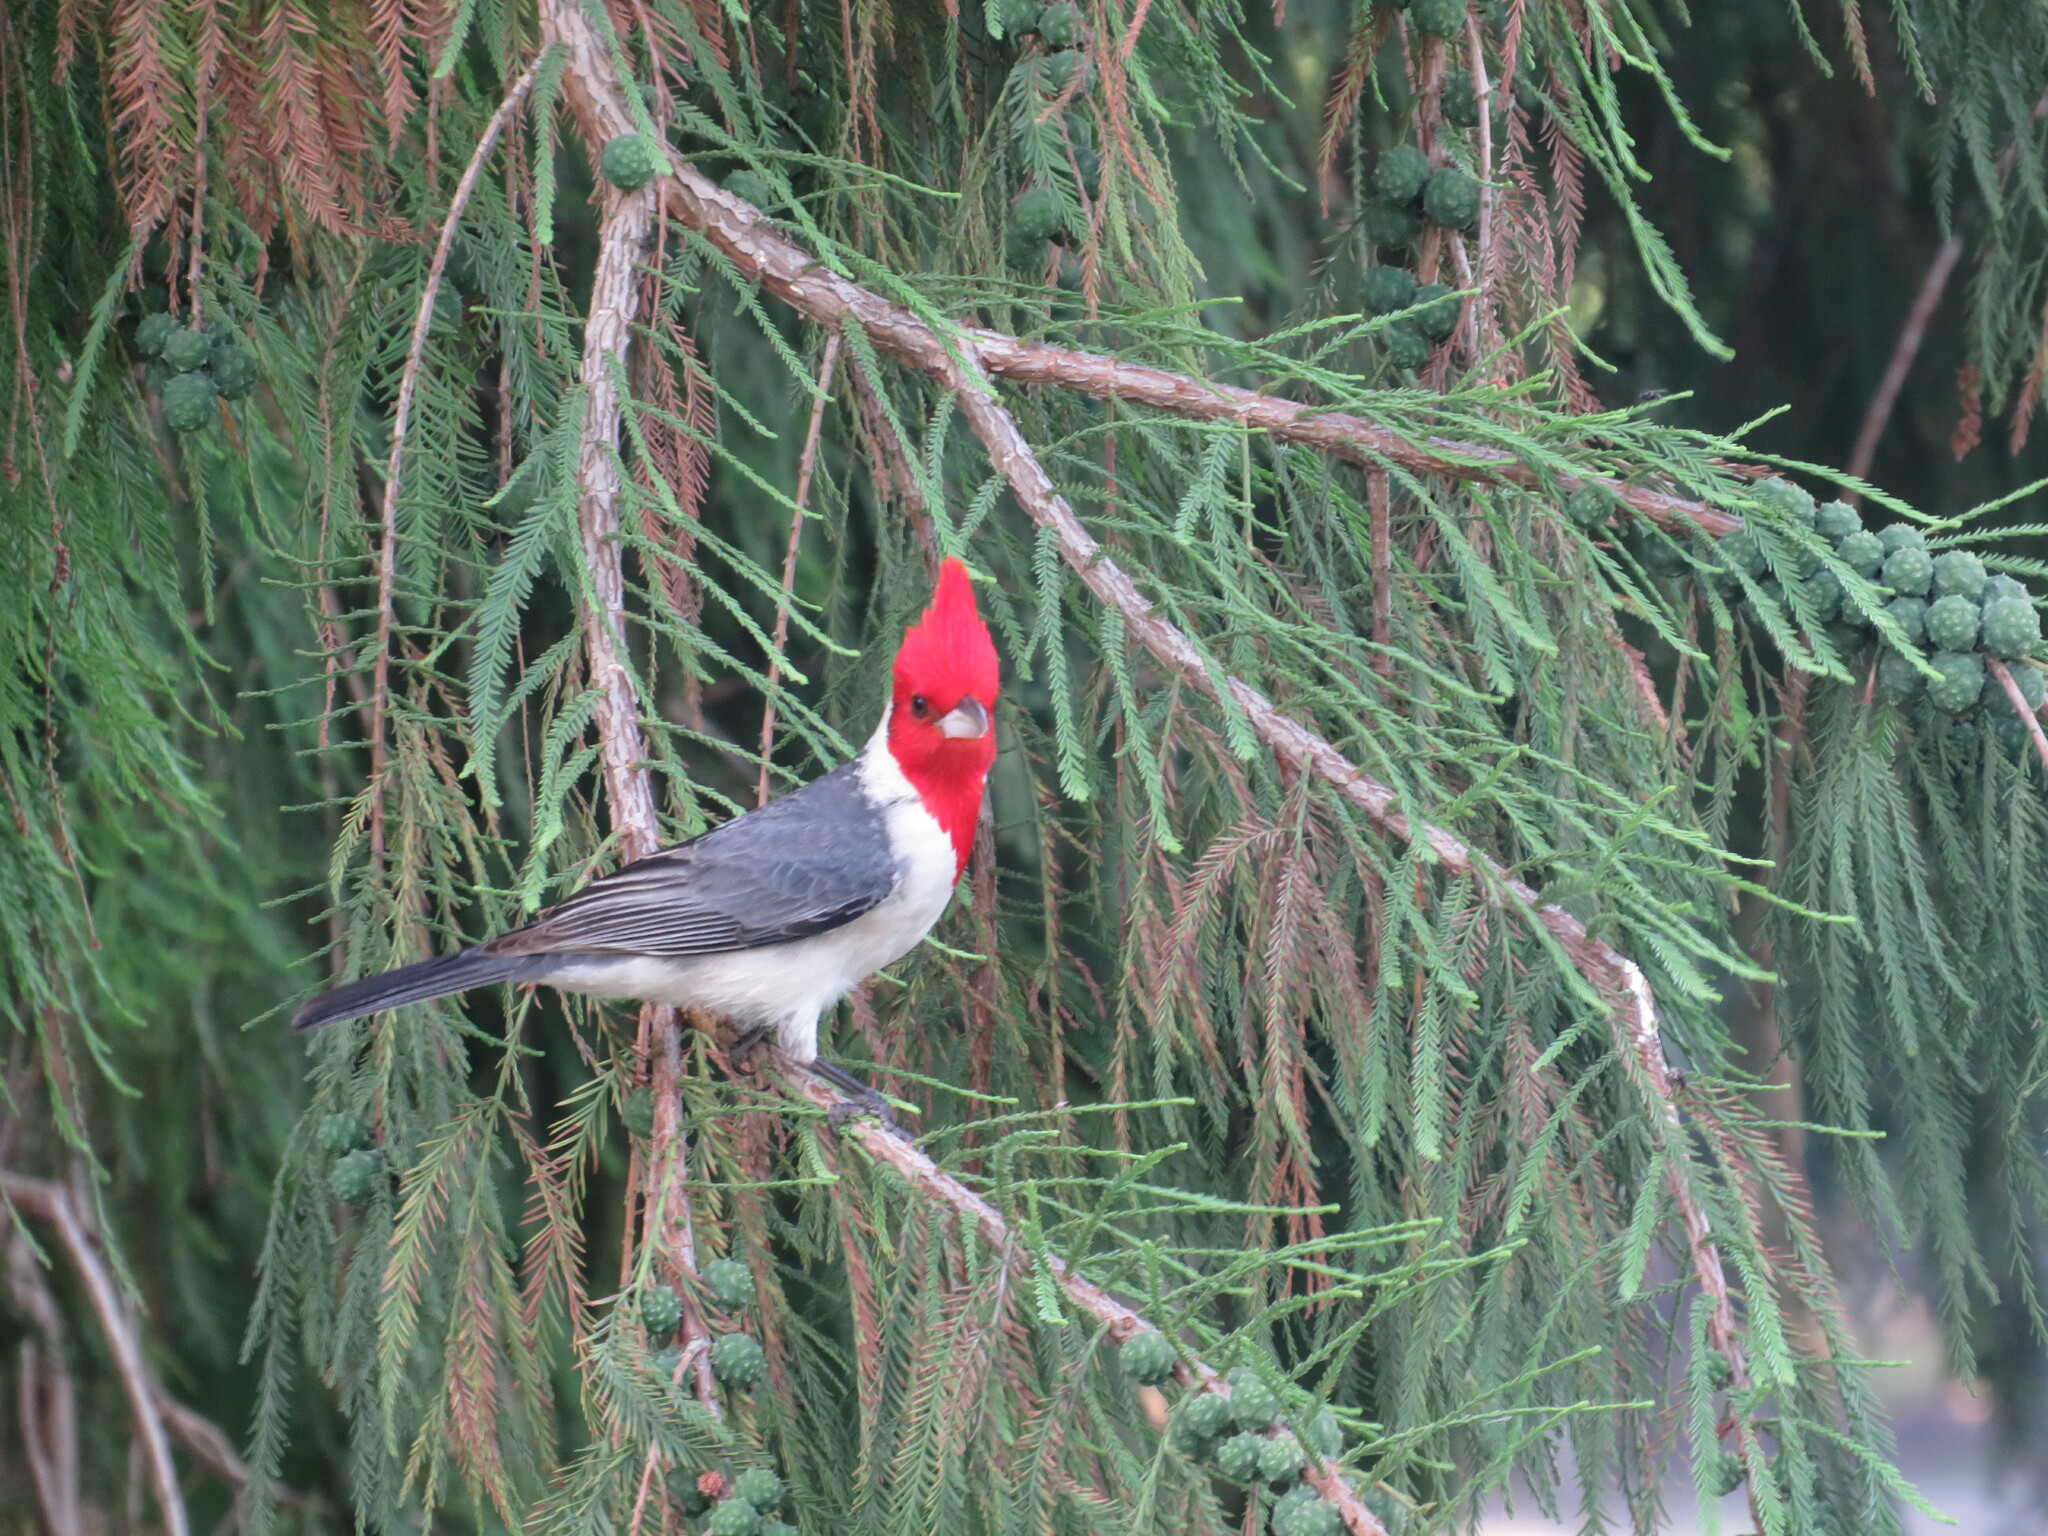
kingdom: Animalia
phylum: Chordata
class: Aves
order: Passeriformes
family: Thraupidae
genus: Paroaria
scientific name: Paroaria coronata
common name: Red-crested cardinal
